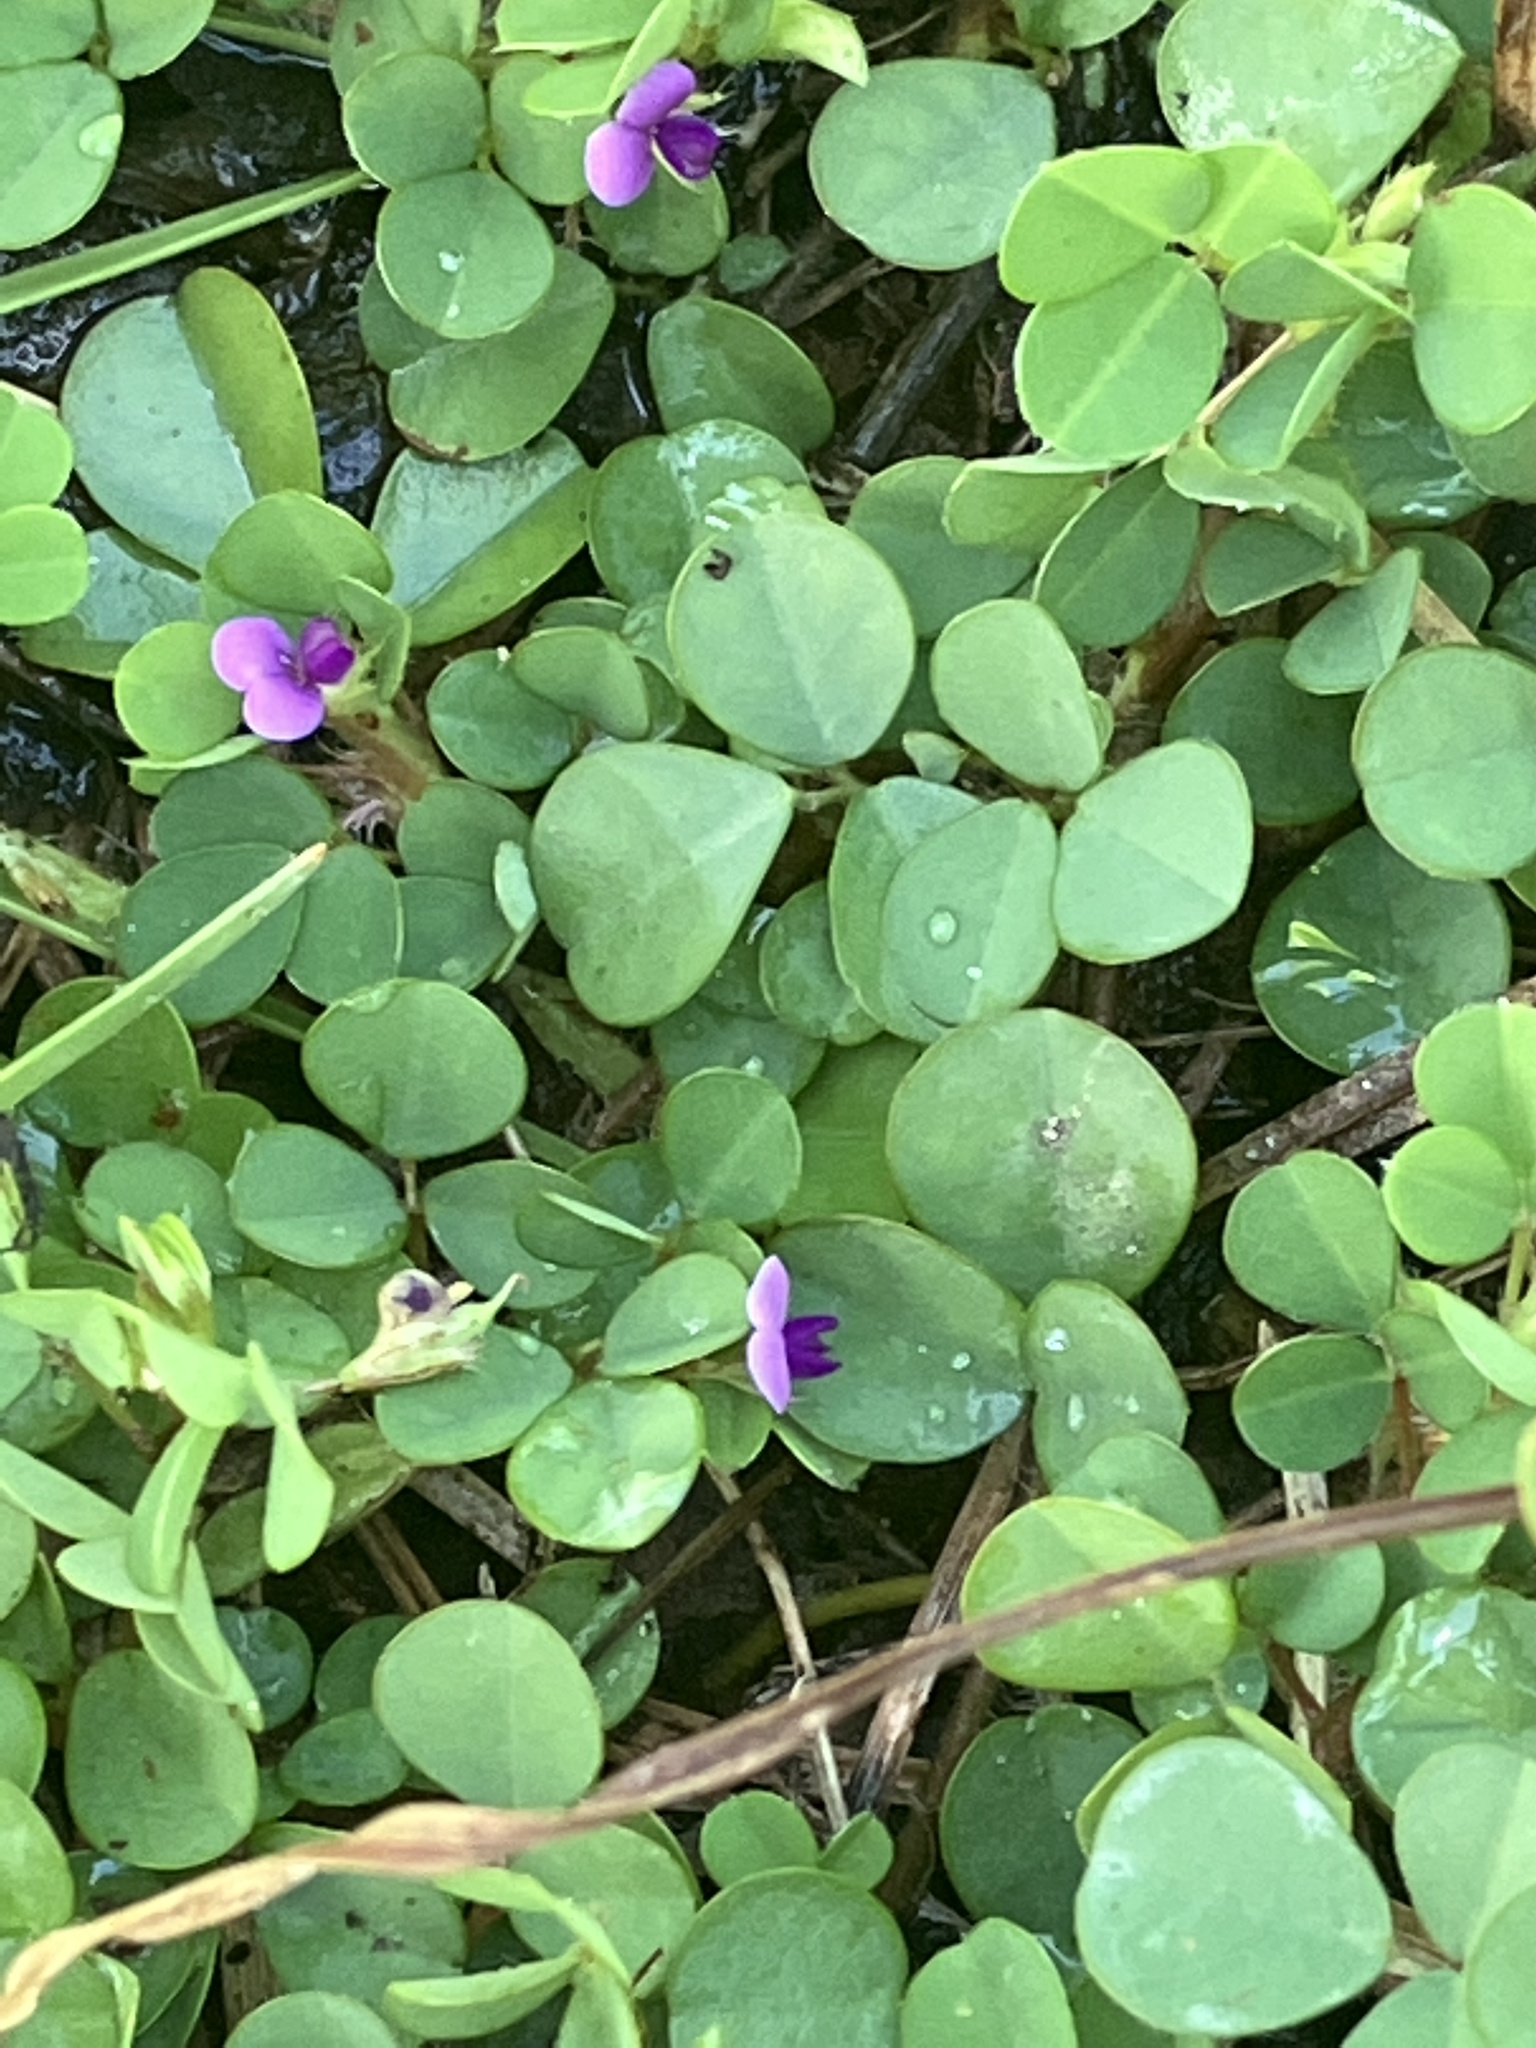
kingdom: Plantae
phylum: Tracheophyta
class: Magnoliopsida
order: Fabales
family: Fabaceae
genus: Grona
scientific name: Grona triflora
